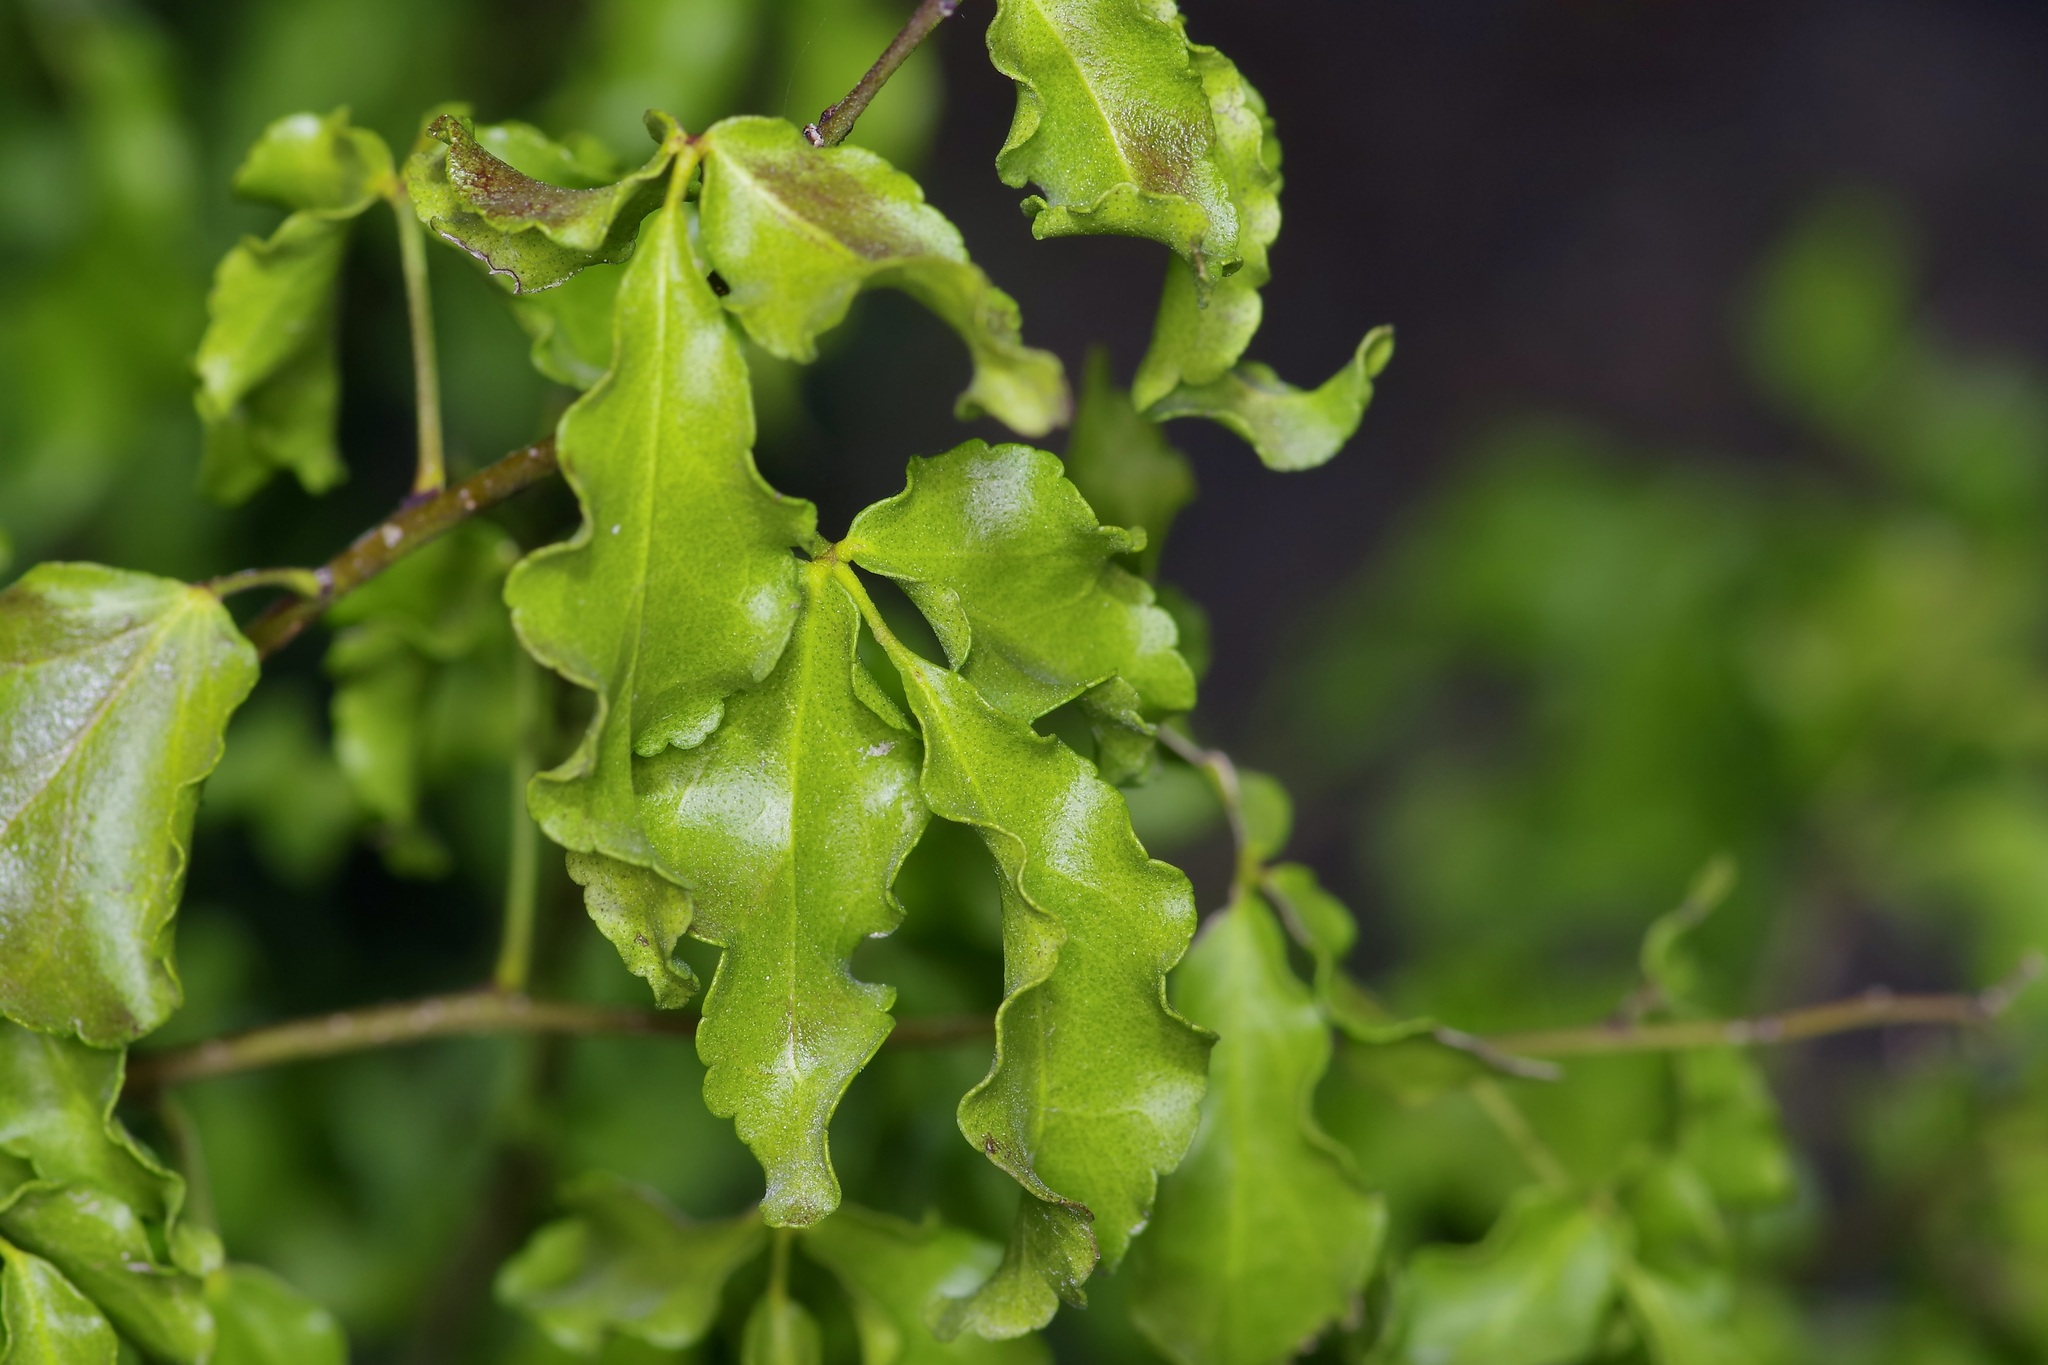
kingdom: Plantae
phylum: Tracheophyta
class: Magnoliopsida
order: Sapindales
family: Rutaceae
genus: Amyris
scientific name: Amyris texana
